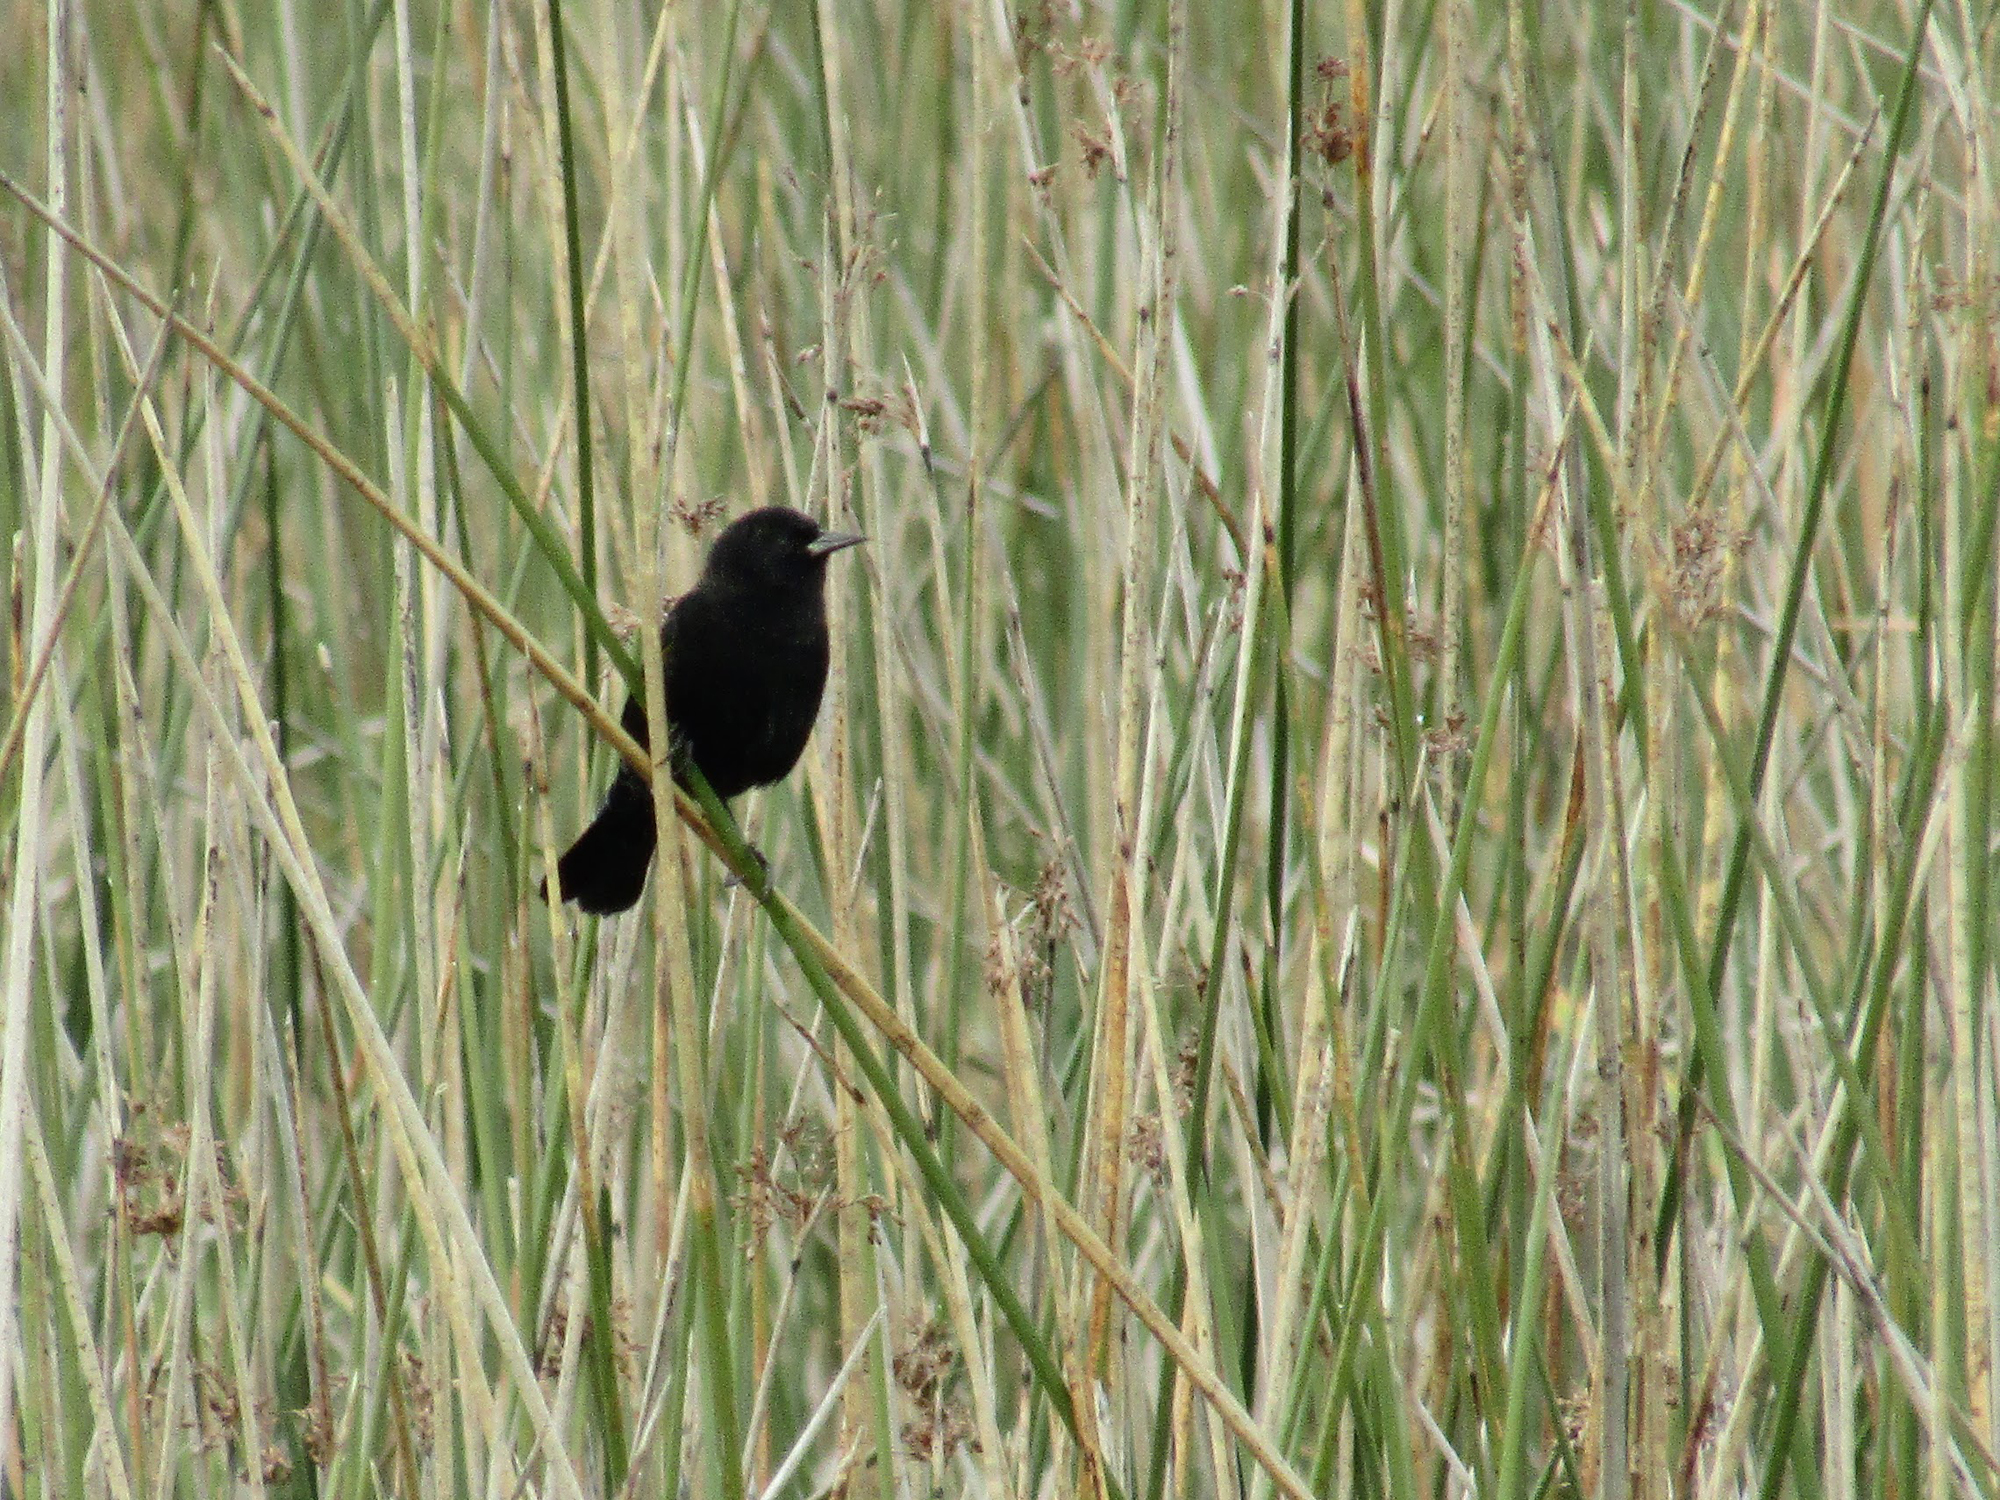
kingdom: Animalia
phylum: Chordata
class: Aves
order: Passeriformes
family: Icteridae
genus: Agelasticus
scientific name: Agelasticus thilius
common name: Yellow-winged blackbird
